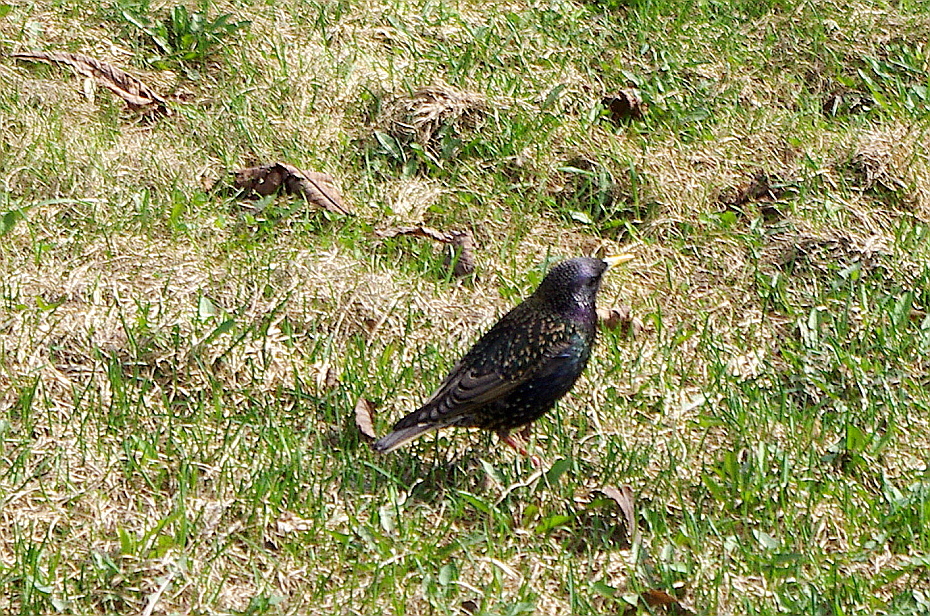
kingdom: Animalia
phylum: Chordata
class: Aves
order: Passeriformes
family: Sturnidae
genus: Sturnus
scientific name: Sturnus vulgaris
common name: Common starling
